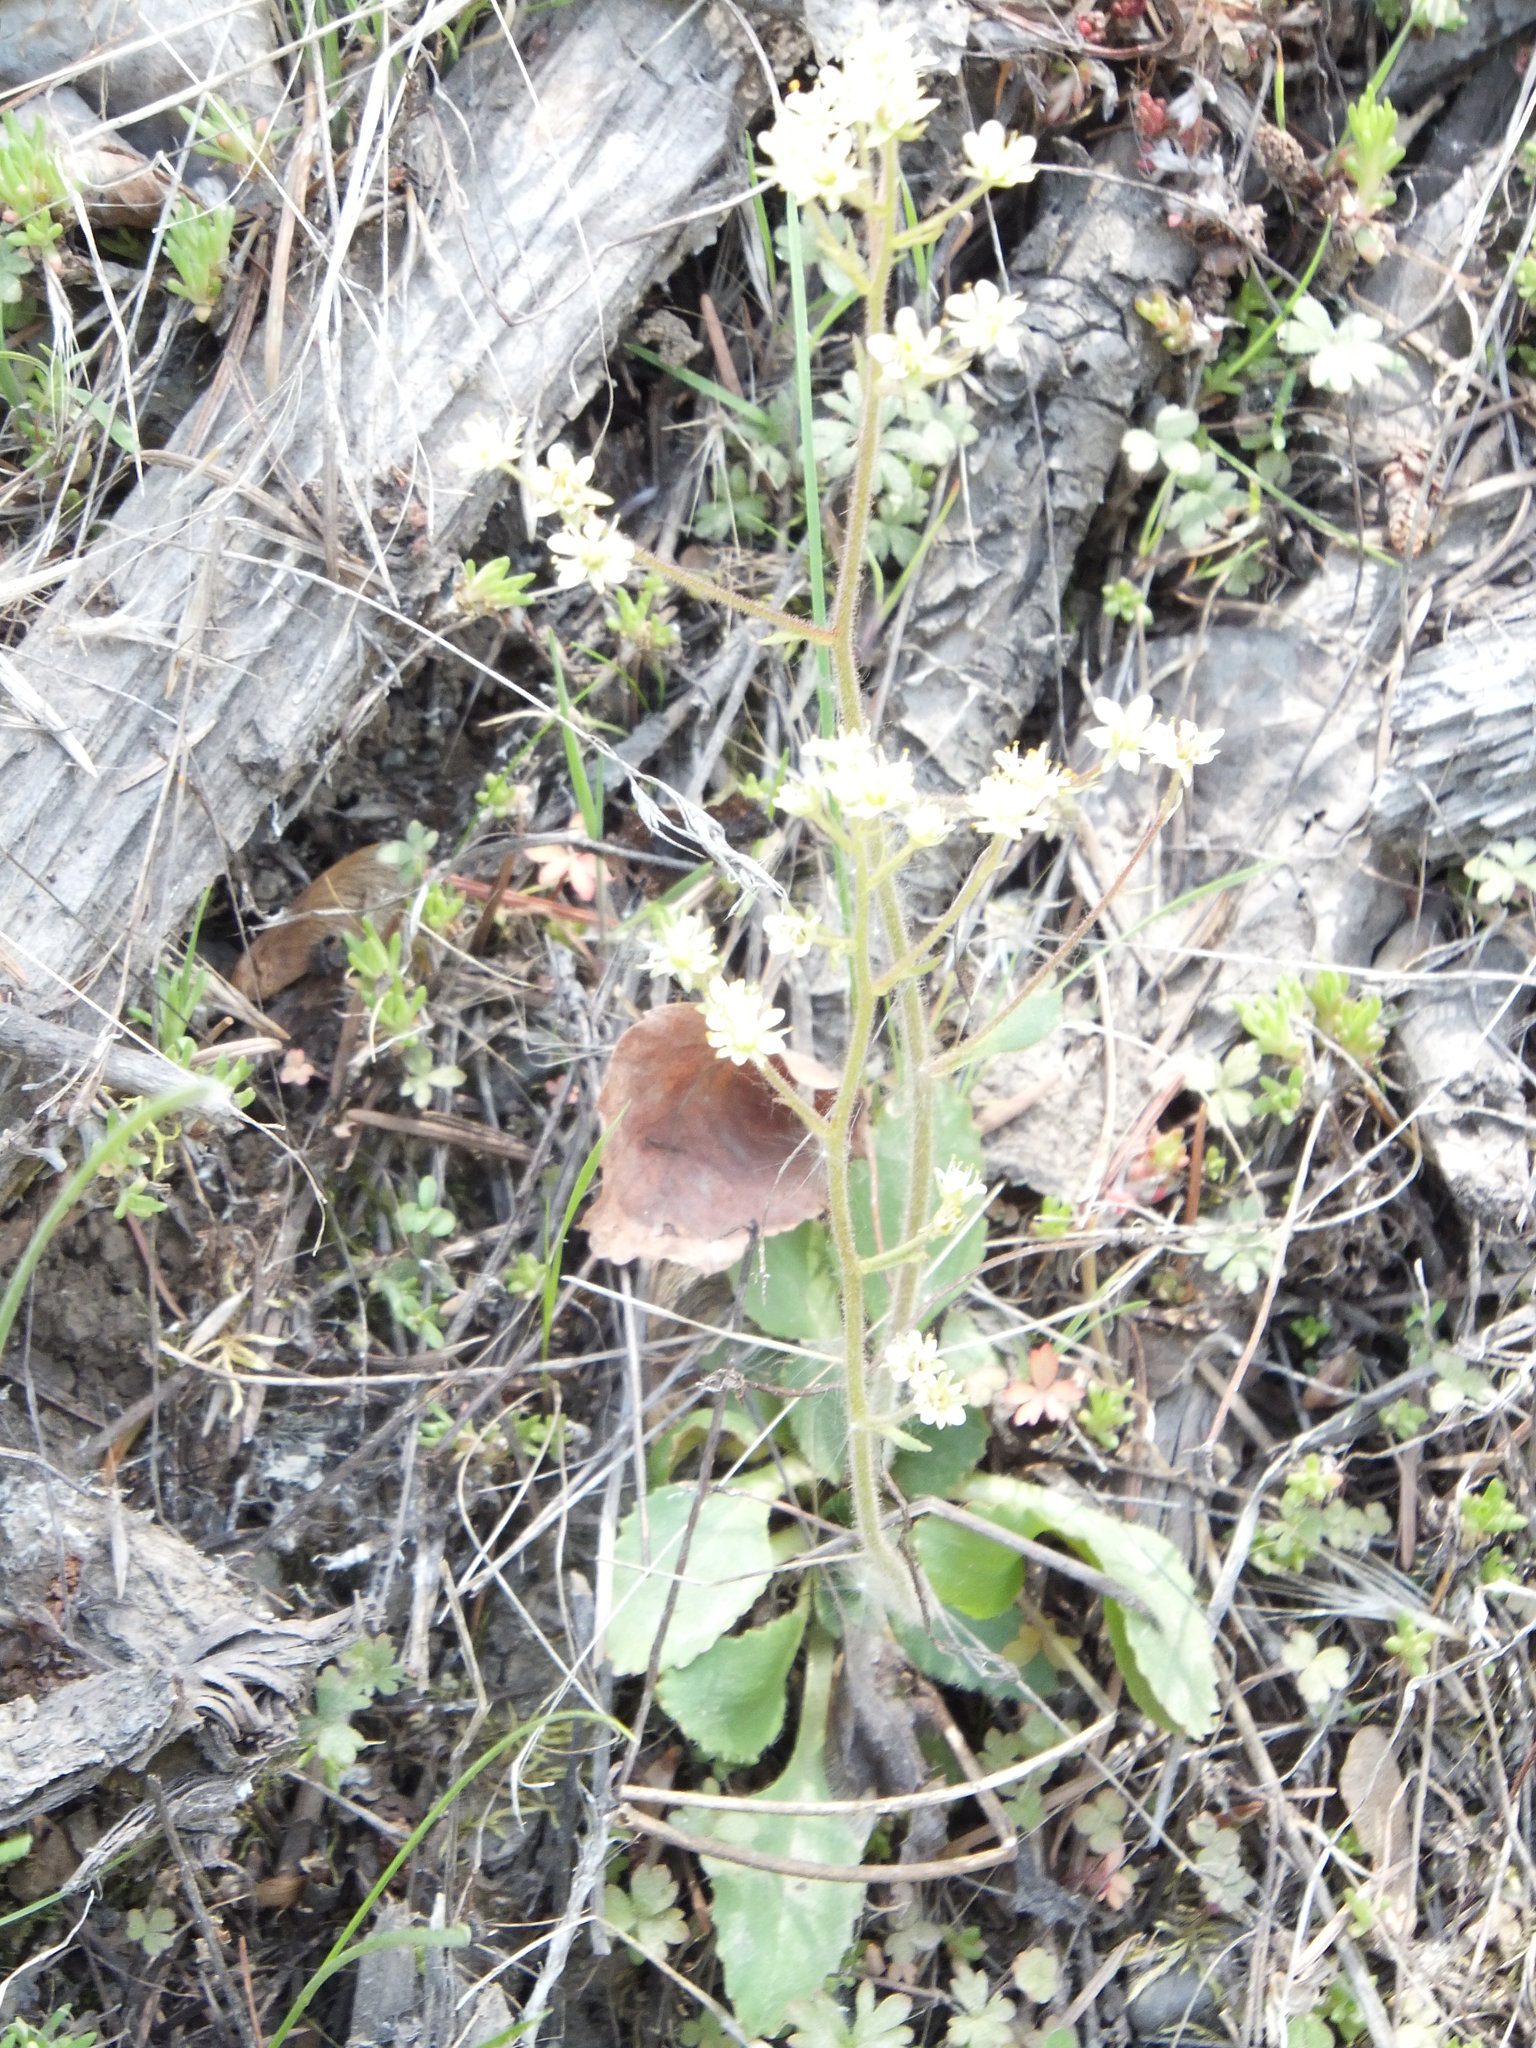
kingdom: Plantae
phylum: Tracheophyta
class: Magnoliopsida
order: Saxifragales
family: Saxifragaceae
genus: Micranthes
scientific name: Micranthes occidentalis
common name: Alberta saxifrage
